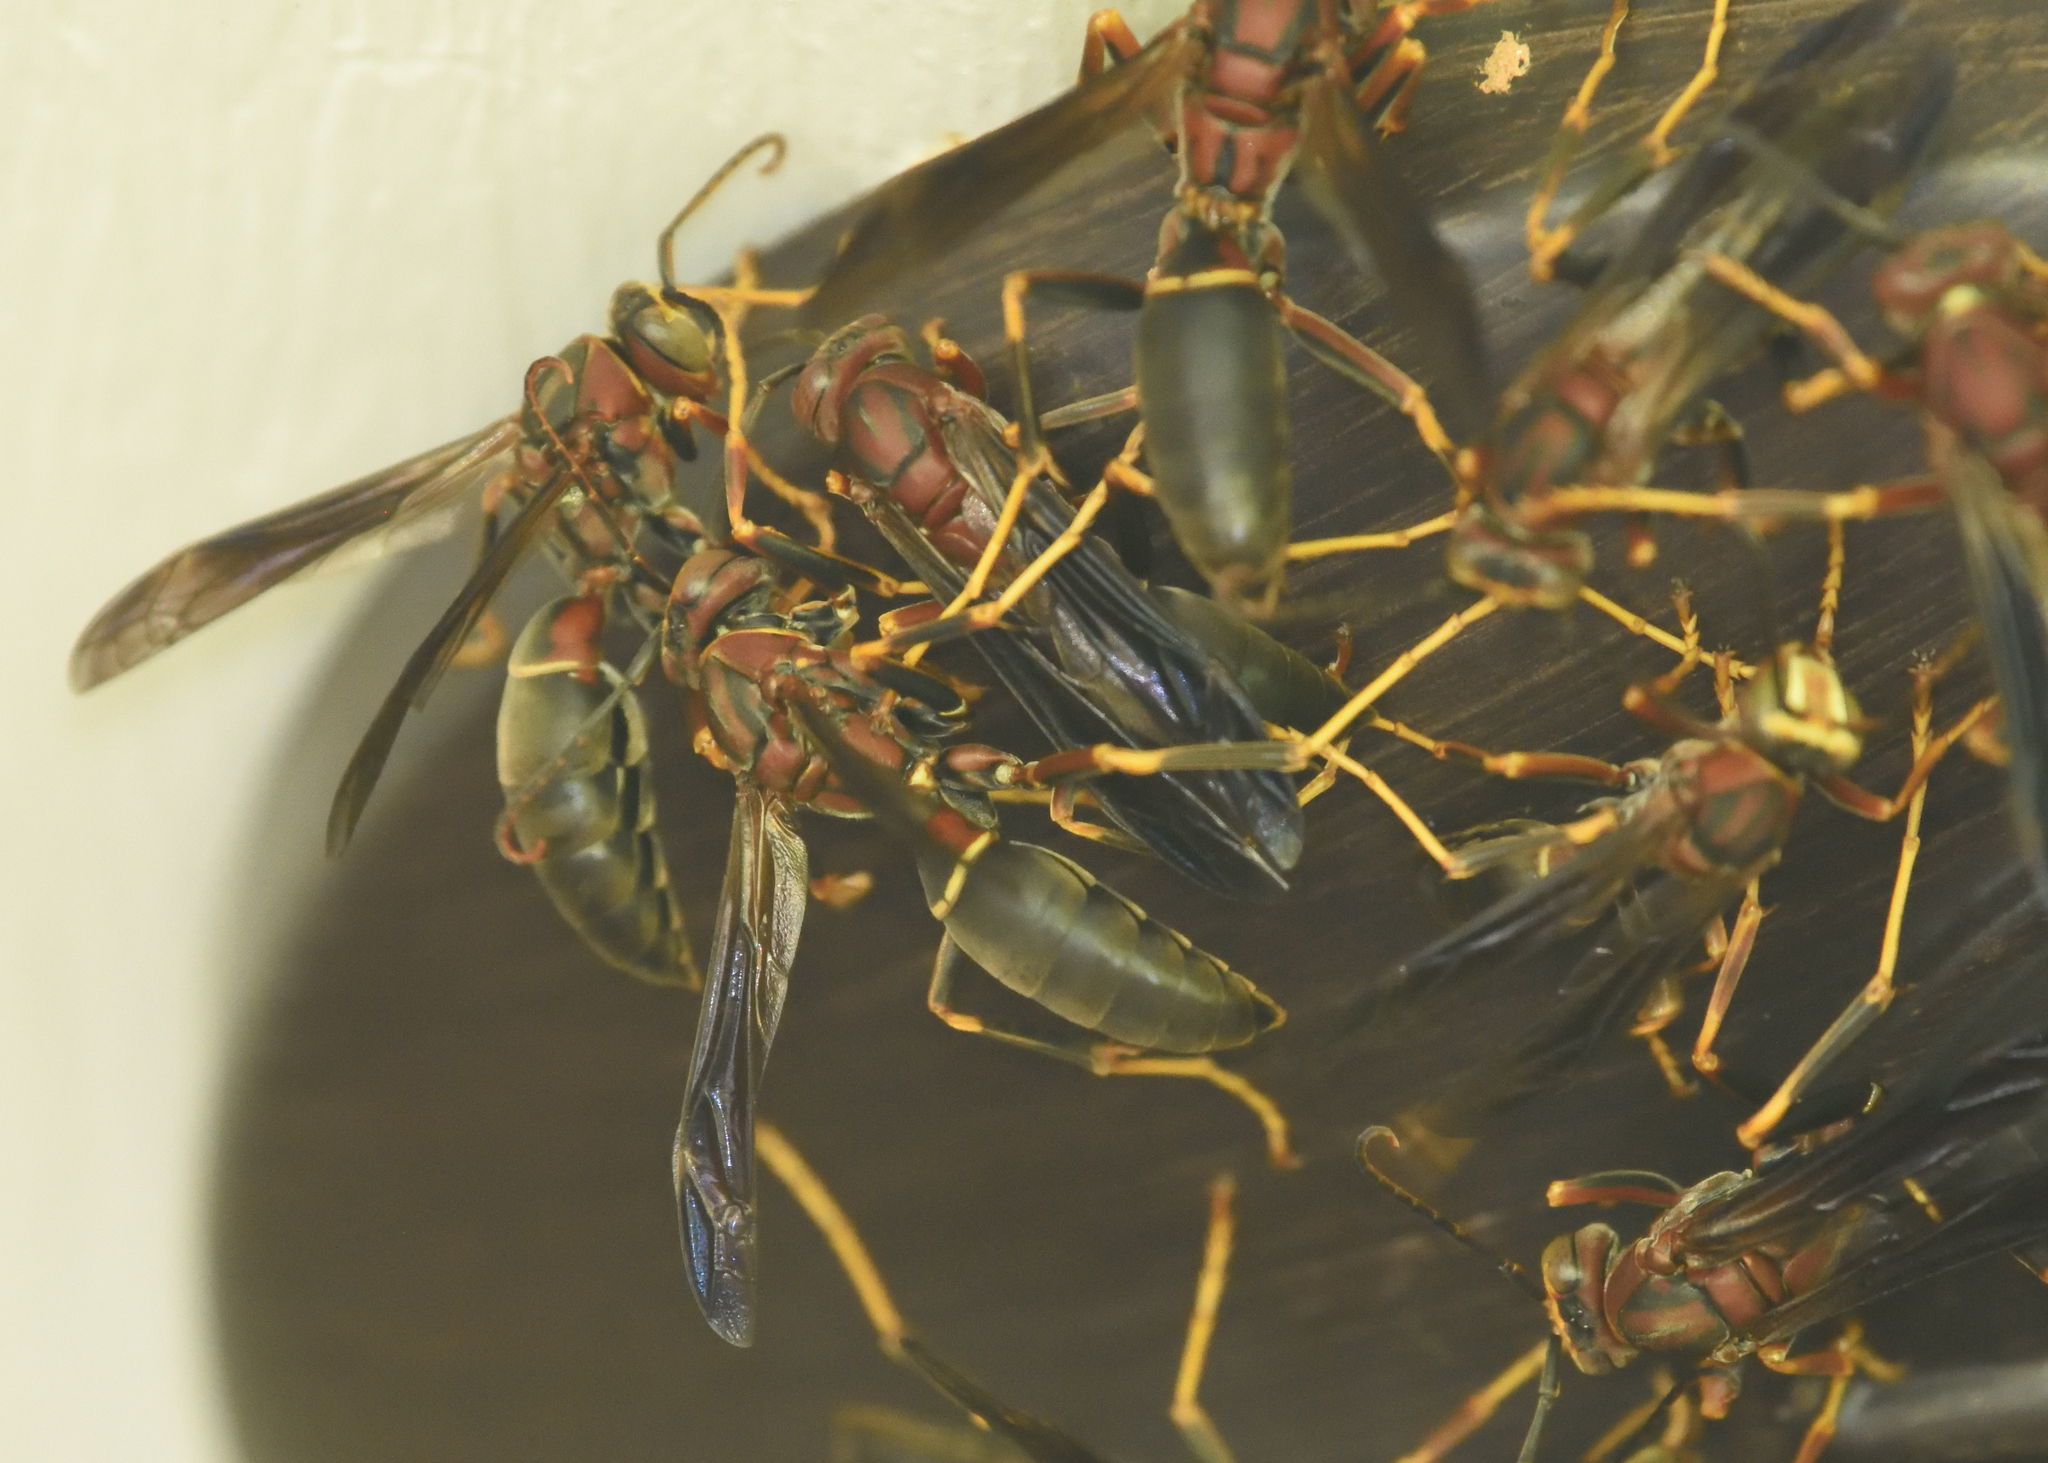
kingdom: Animalia
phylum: Arthropoda
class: Insecta
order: Hymenoptera
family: Eumenidae
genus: Polistes
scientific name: Polistes metricus
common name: Metric paper wasp
